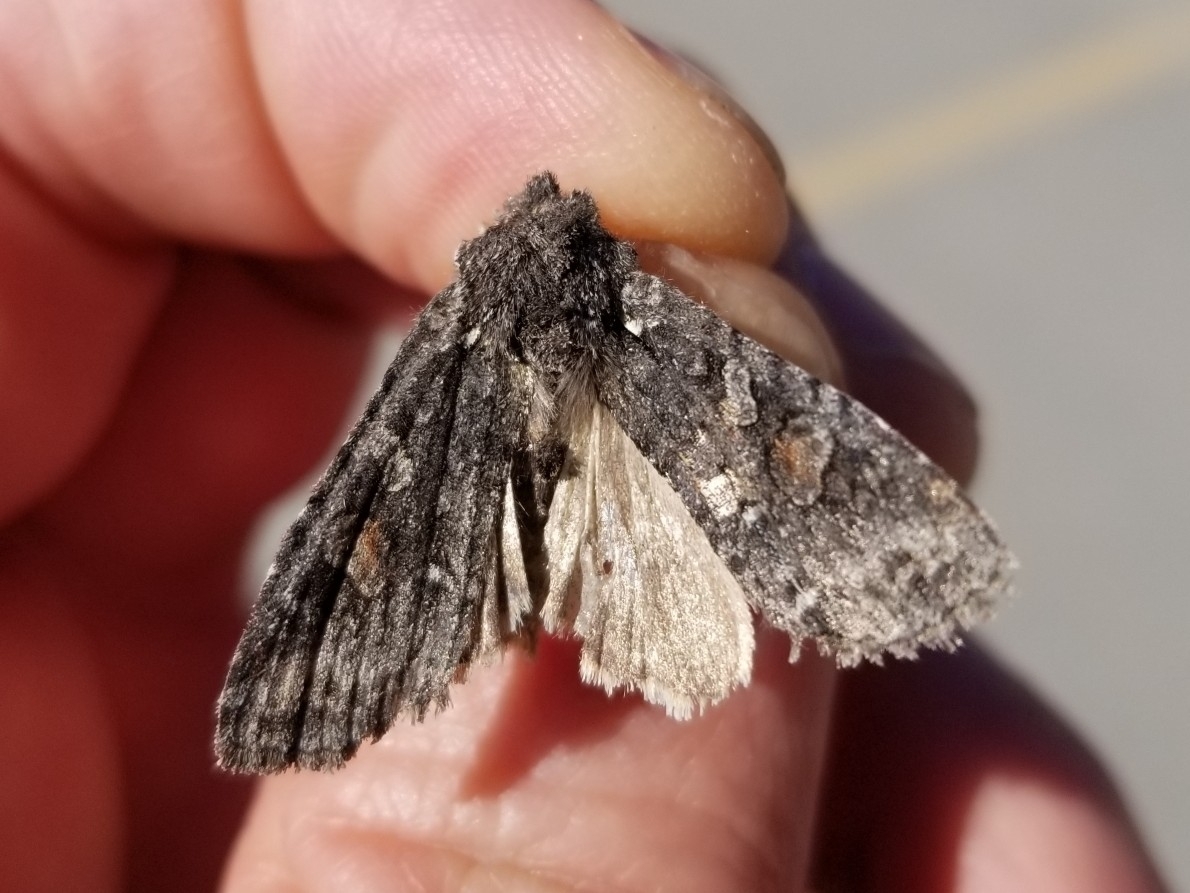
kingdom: Animalia
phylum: Arthropoda
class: Insecta
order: Lepidoptera
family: Noctuidae
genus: Lithophane
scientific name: Lithophane pexata
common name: Plush-naped pinion moth
